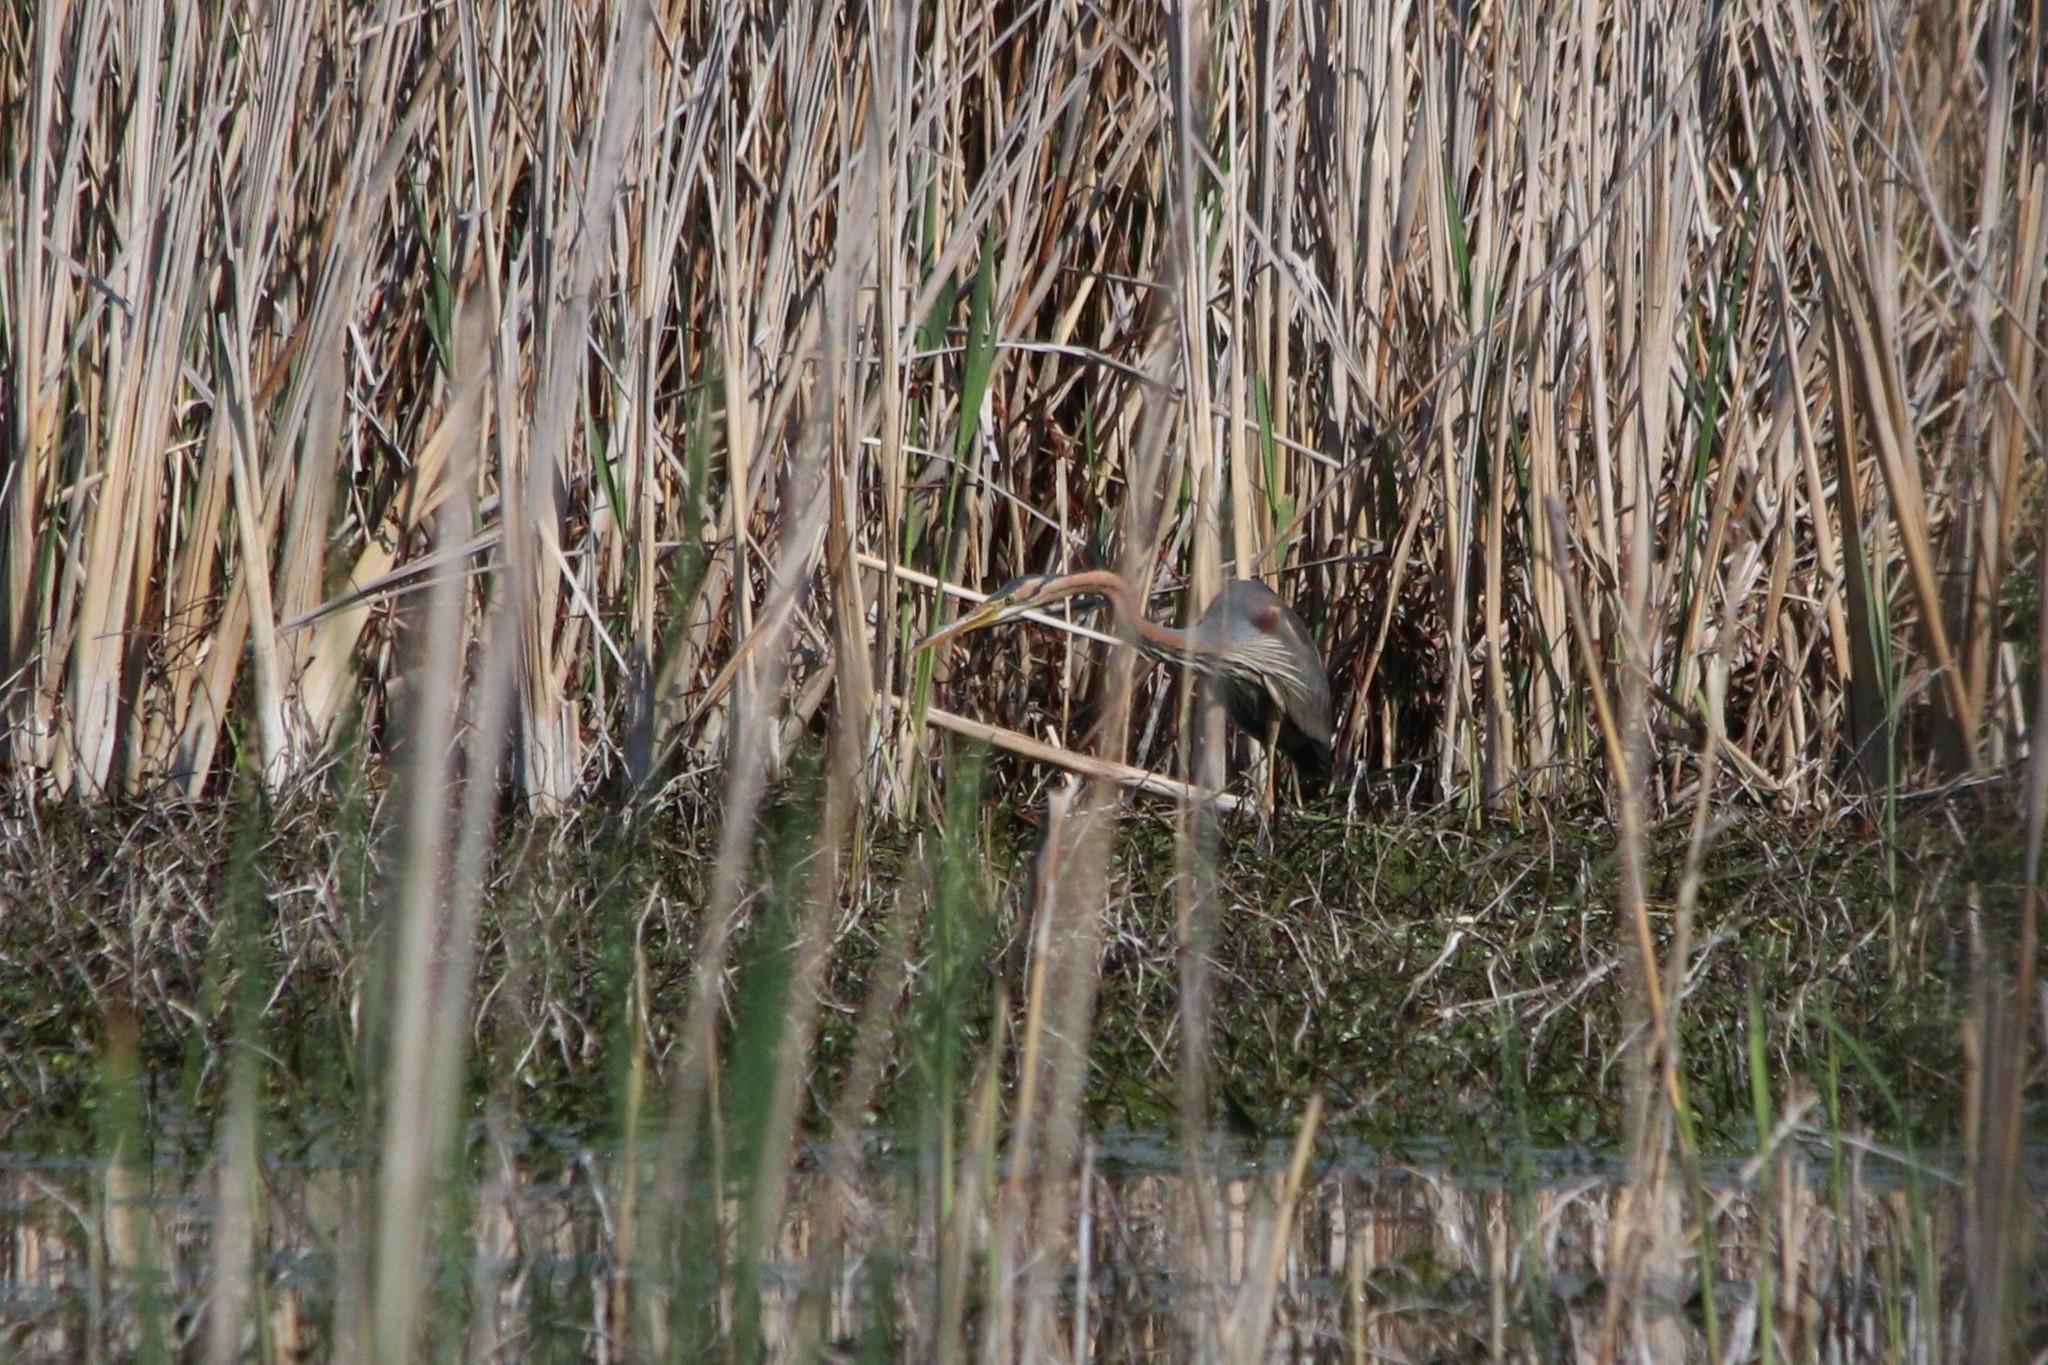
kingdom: Animalia
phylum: Chordata
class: Aves
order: Pelecaniformes
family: Ardeidae
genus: Ardea
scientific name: Ardea purpurea
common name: Purple heron
